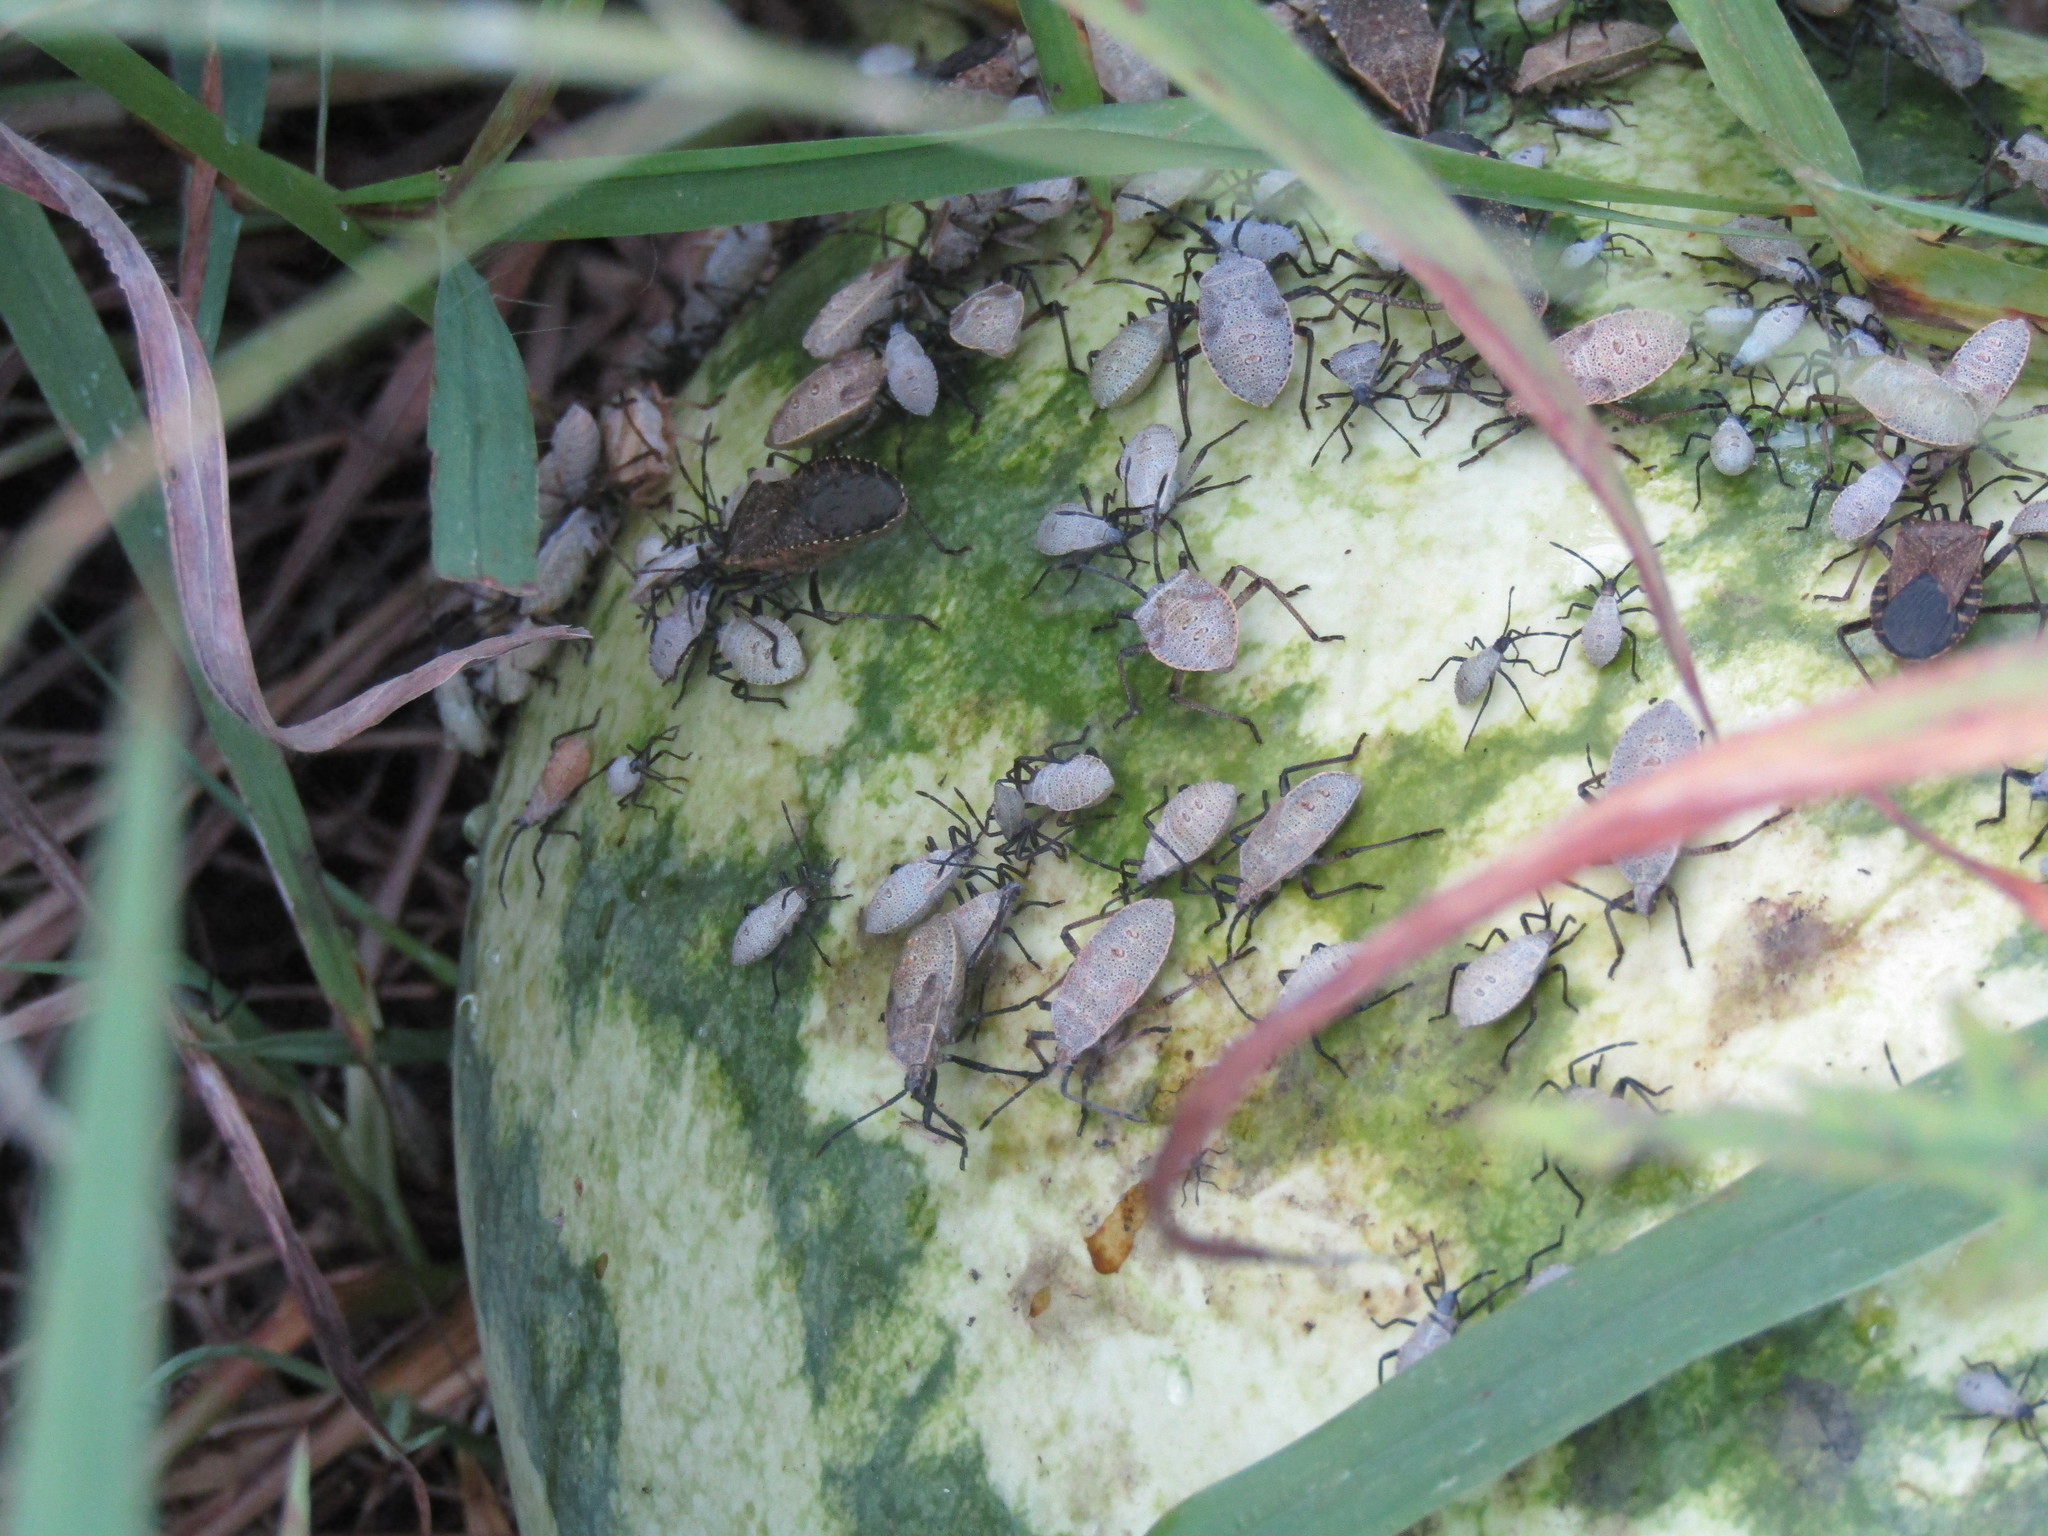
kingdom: Animalia
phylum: Arthropoda
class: Insecta
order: Hemiptera
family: Coreidae
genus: Anasa
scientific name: Anasa tristis
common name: Squash bug
